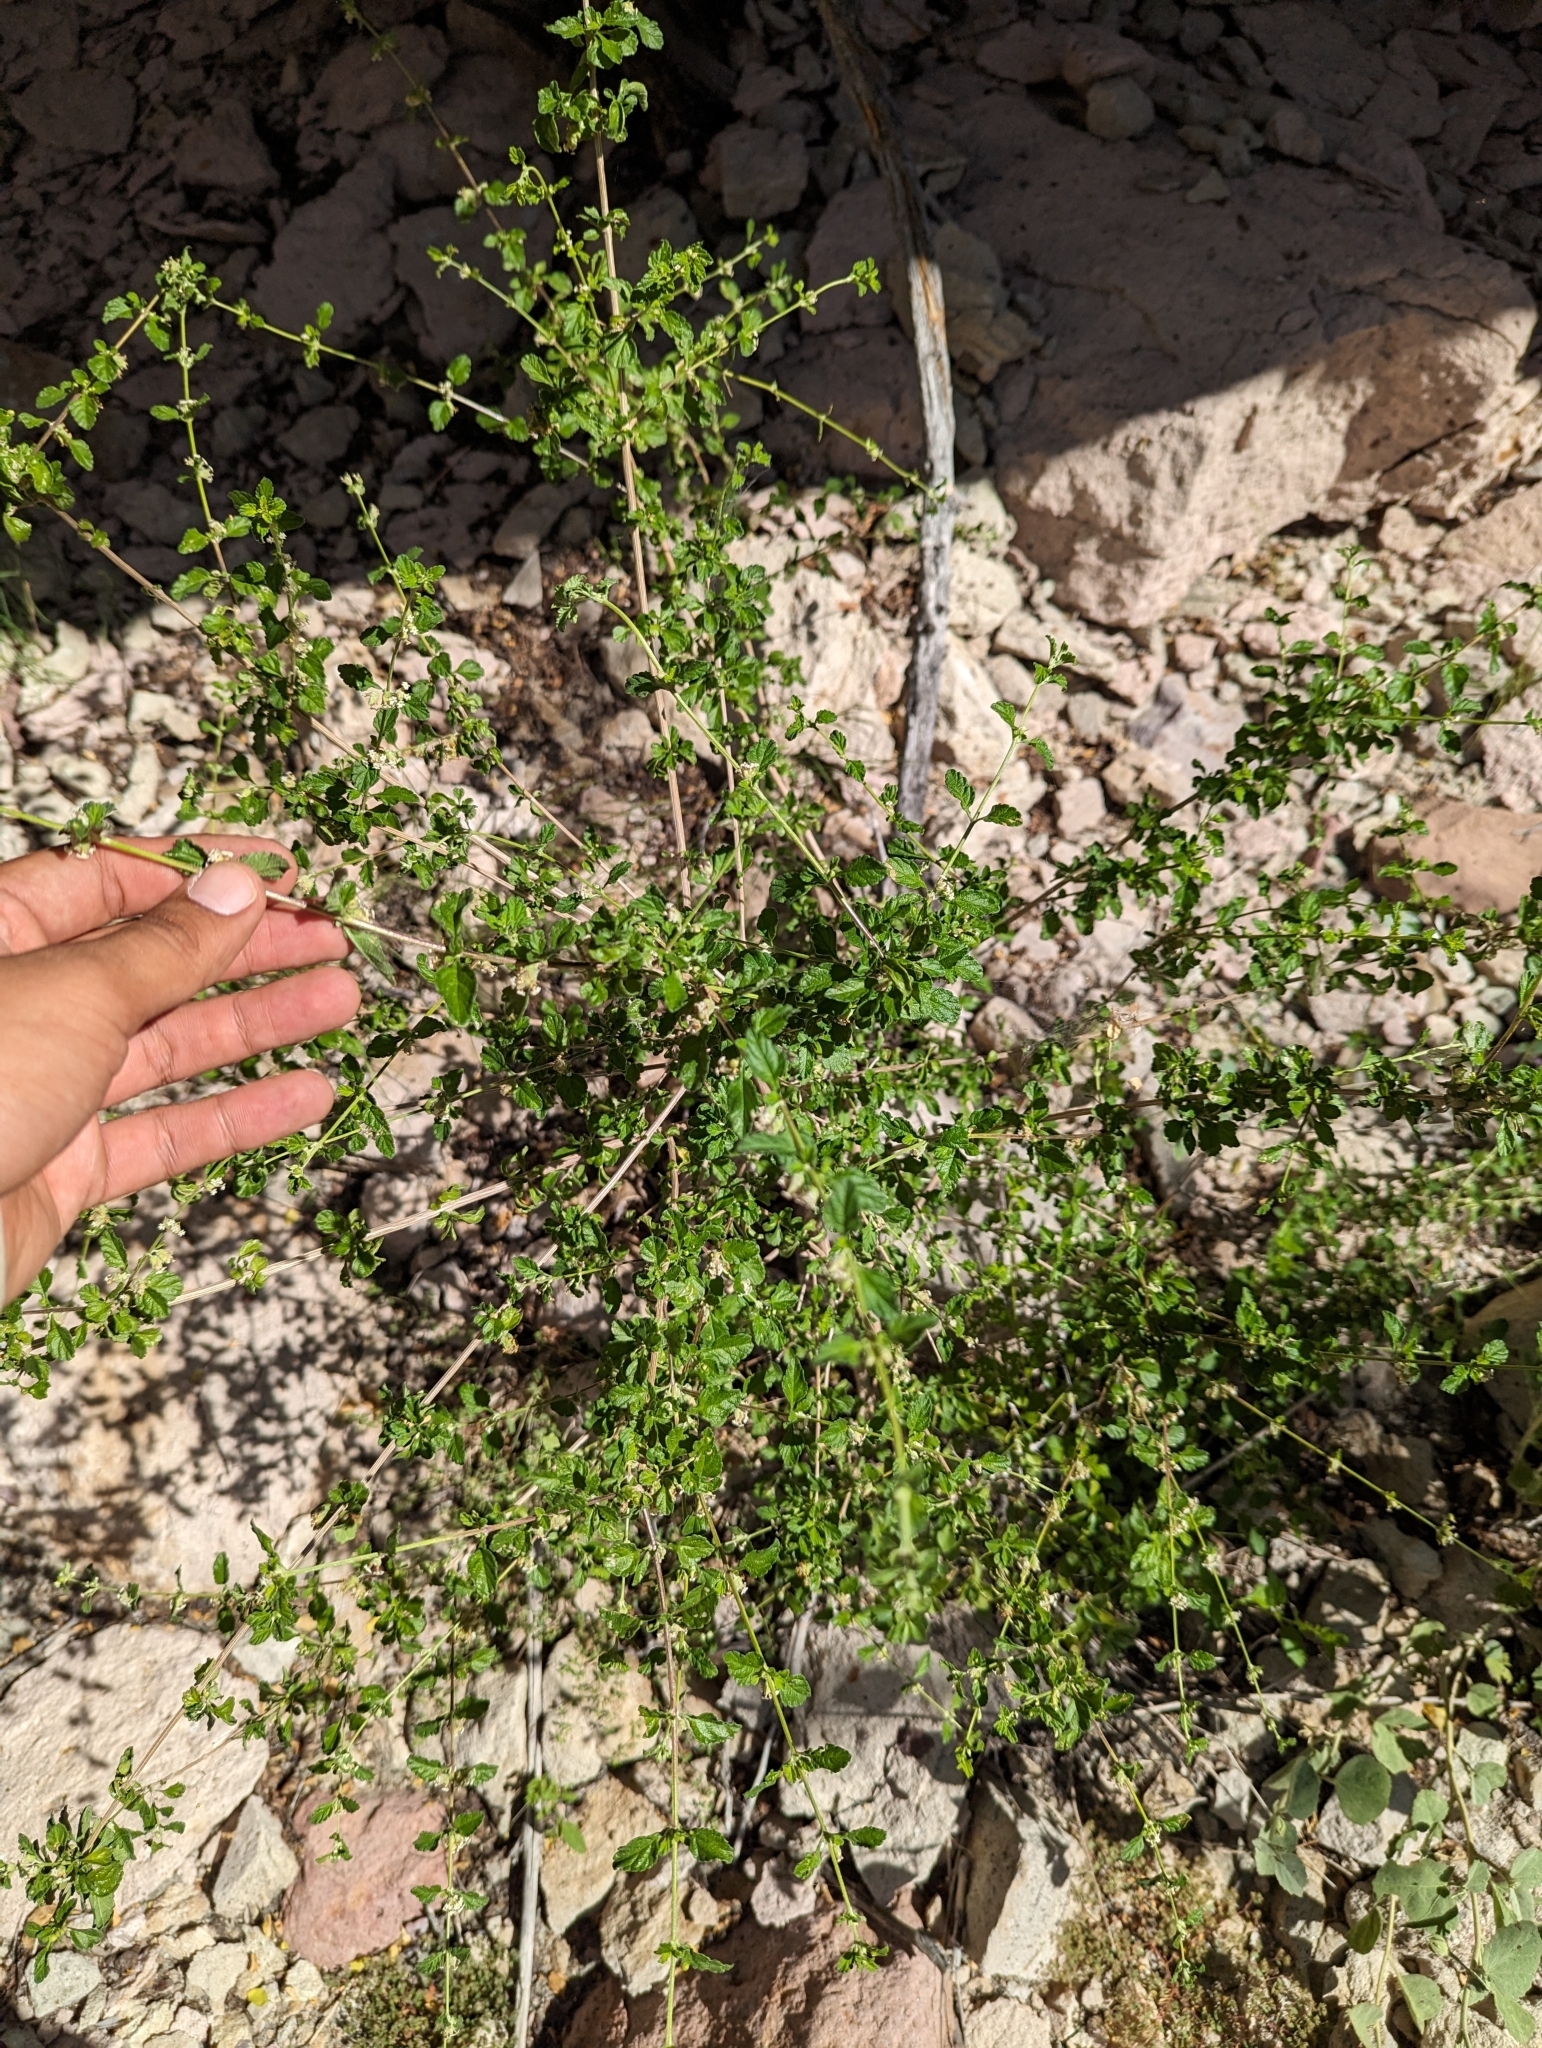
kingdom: Plantae
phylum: Tracheophyta
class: Magnoliopsida
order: Lamiales
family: Verbenaceae
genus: Lippia
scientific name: Lippia origanoides
